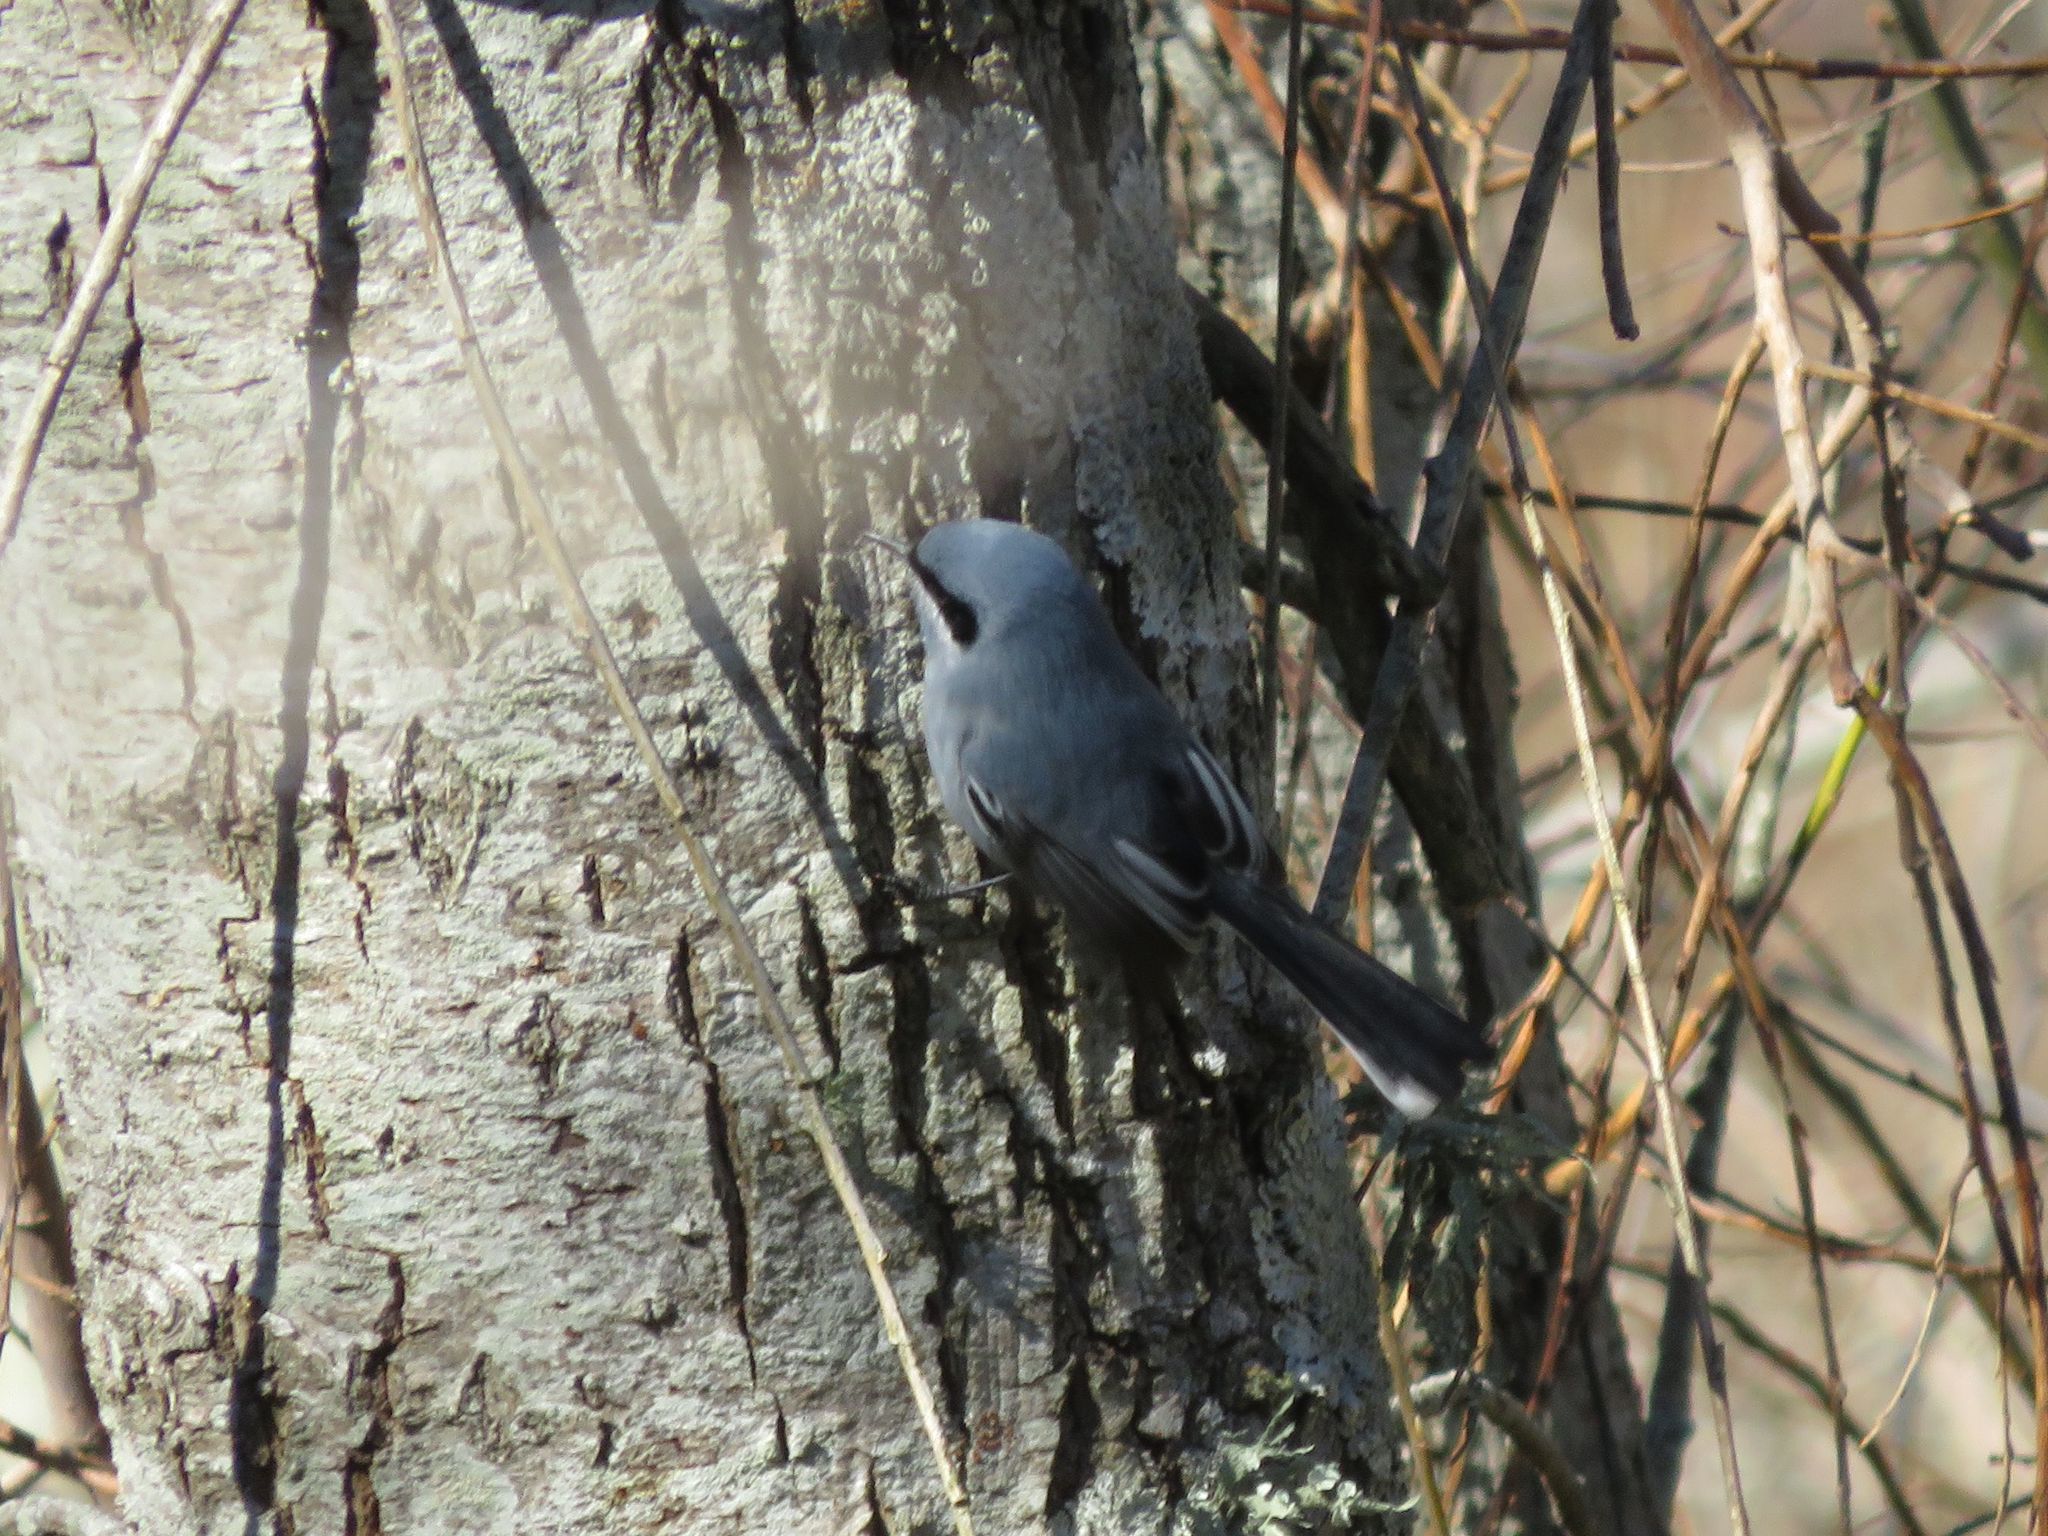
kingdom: Animalia
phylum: Chordata
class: Aves
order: Passeriformes
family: Polioptilidae
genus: Polioptila
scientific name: Polioptila dumicola
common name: Masked gnatcatcher
